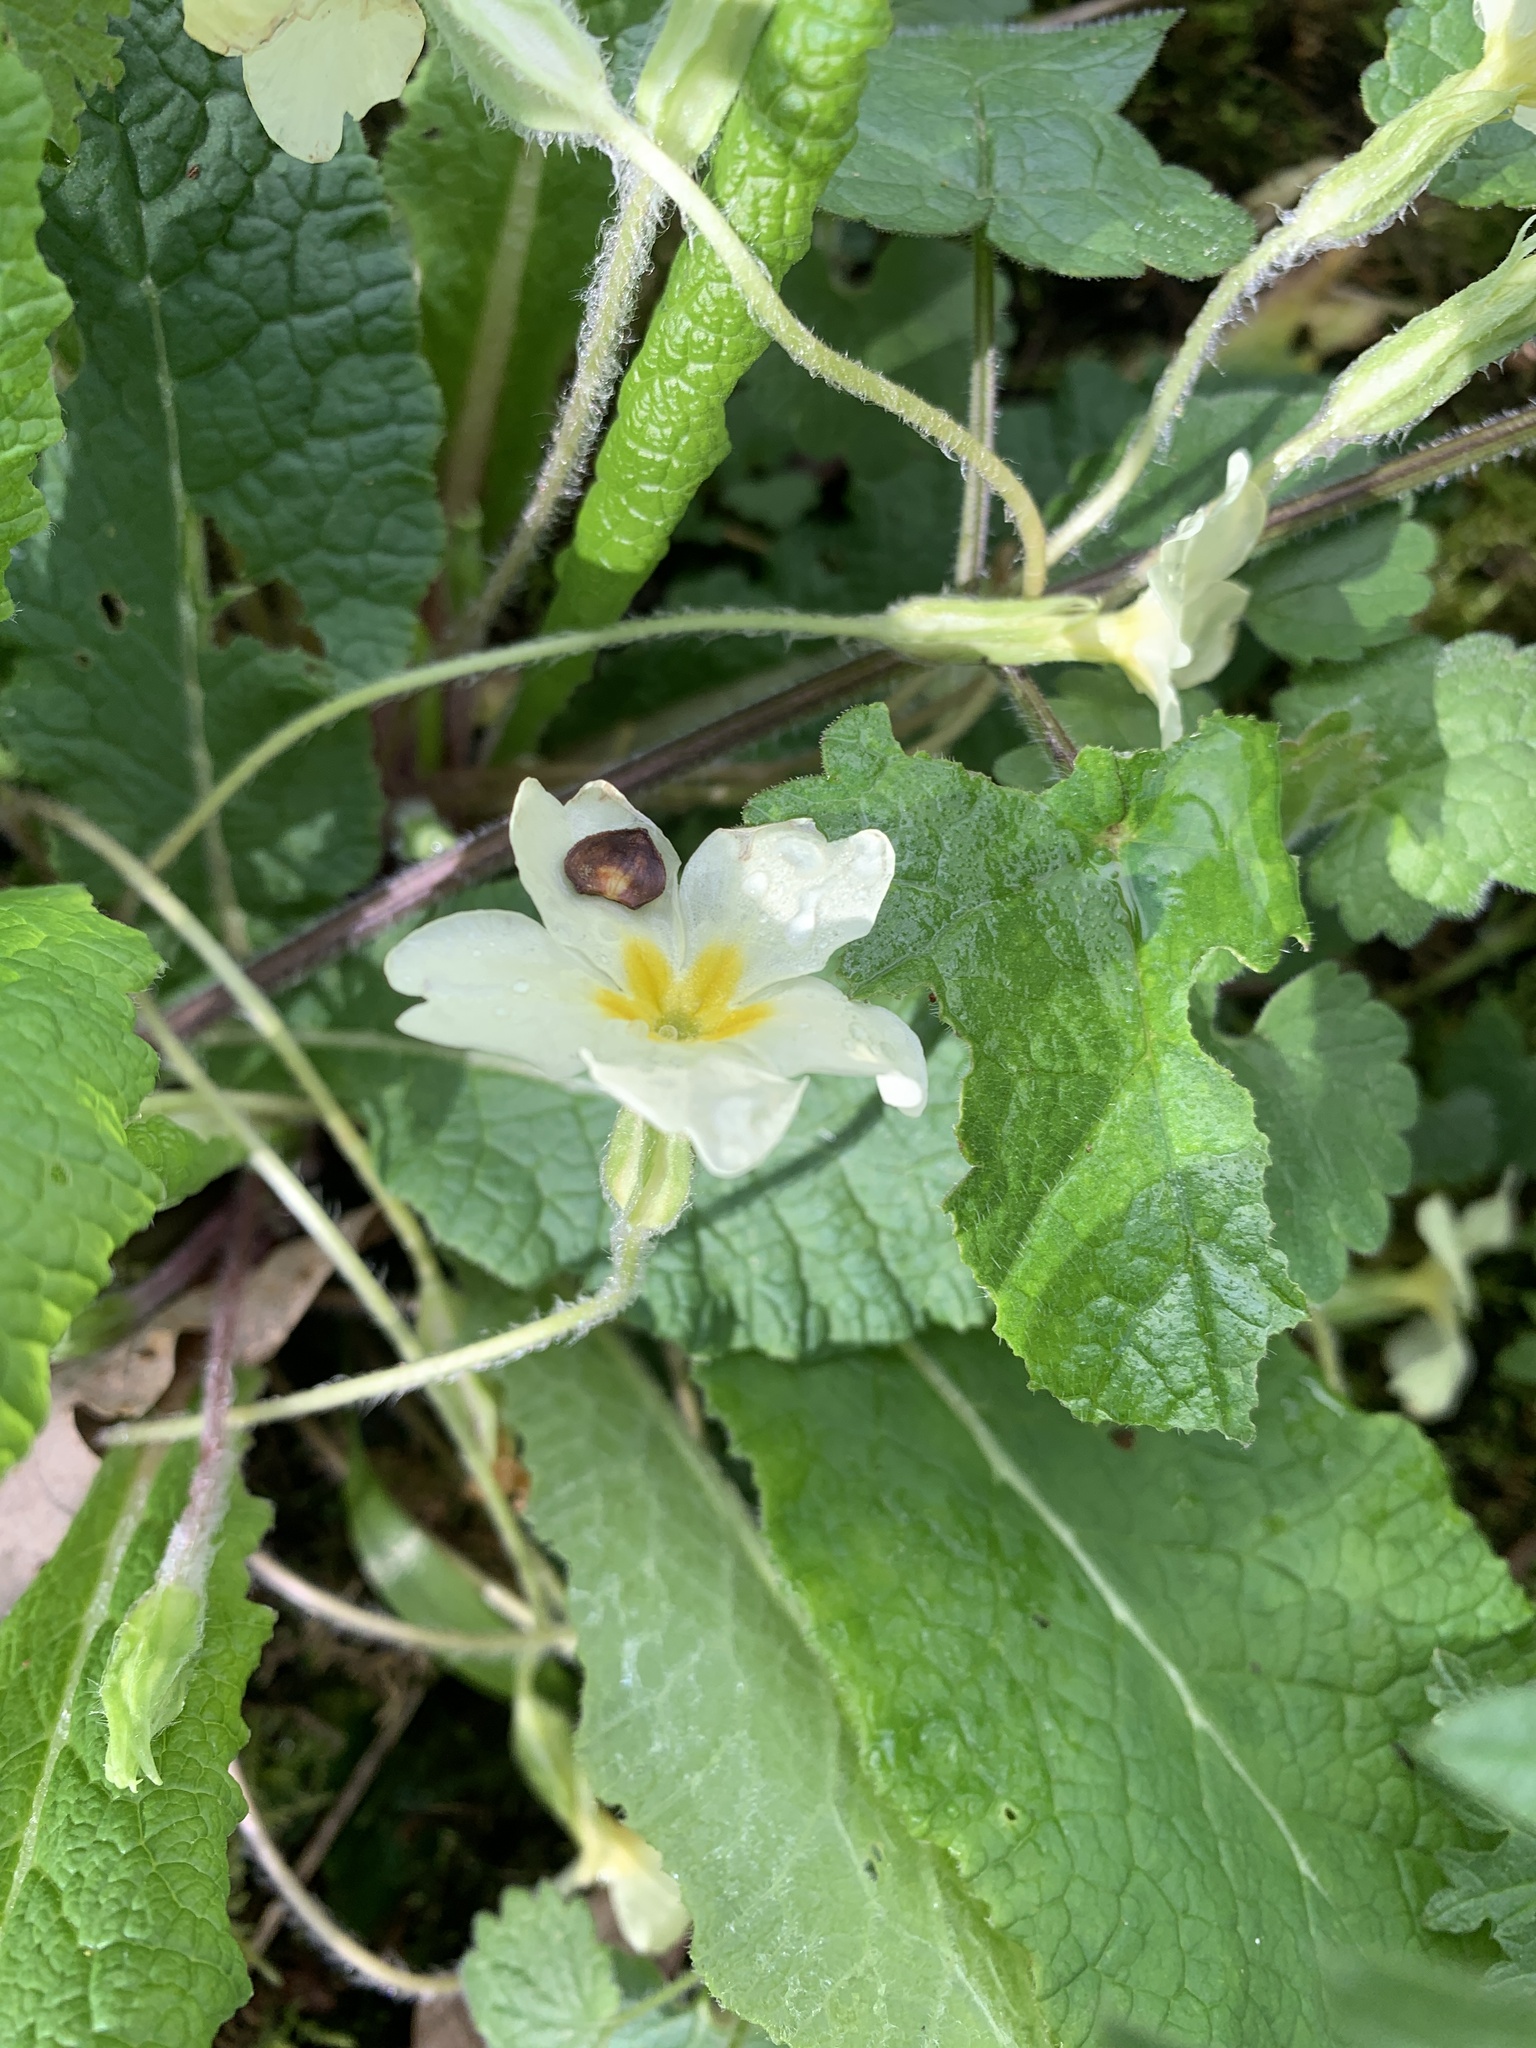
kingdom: Plantae
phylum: Tracheophyta
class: Magnoliopsida
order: Ericales
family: Primulaceae
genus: Primula
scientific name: Primula vulgaris
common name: Primrose
